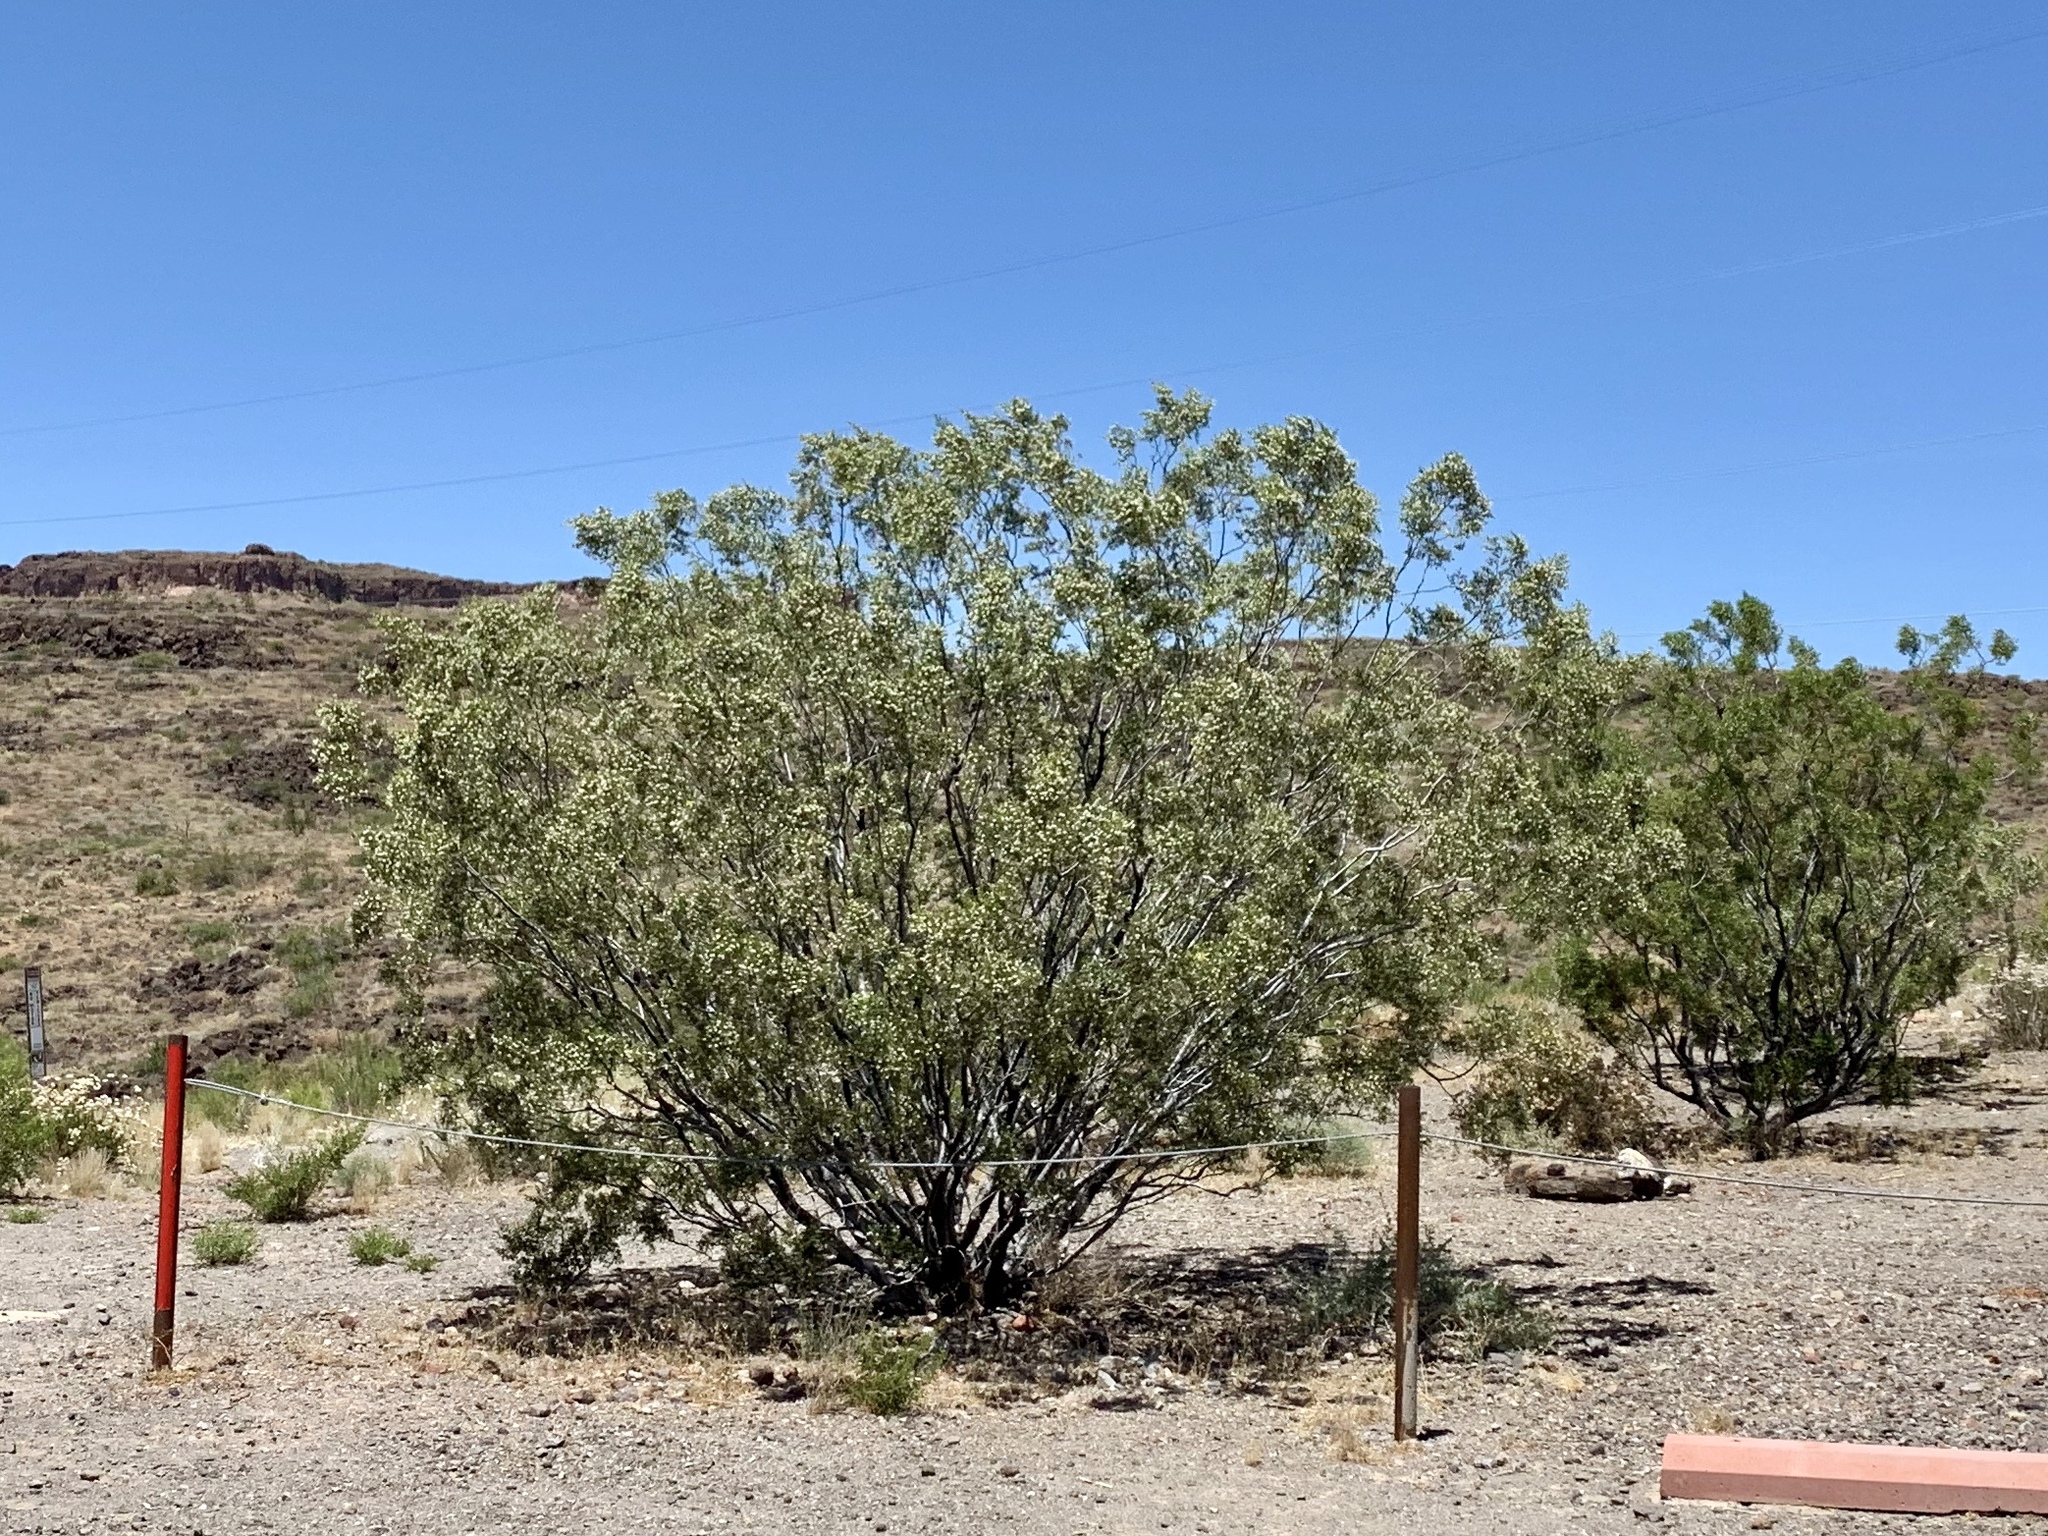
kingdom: Plantae
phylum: Tracheophyta
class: Magnoliopsida
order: Zygophyllales
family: Zygophyllaceae
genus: Larrea
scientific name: Larrea tridentata
